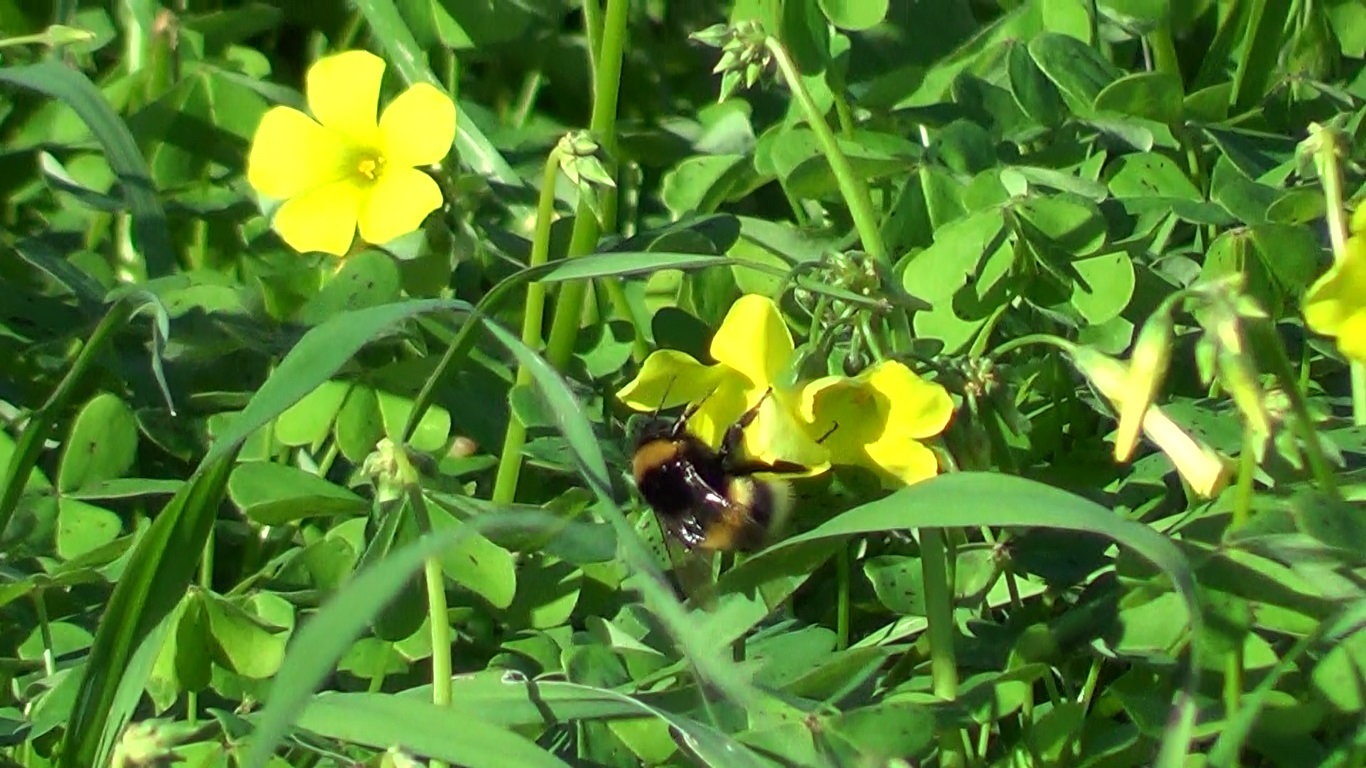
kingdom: Animalia
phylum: Arthropoda
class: Insecta
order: Hymenoptera
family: Apidae
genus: Bombus
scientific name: Bombus terrestris
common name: Buff-tailed bumblebee
